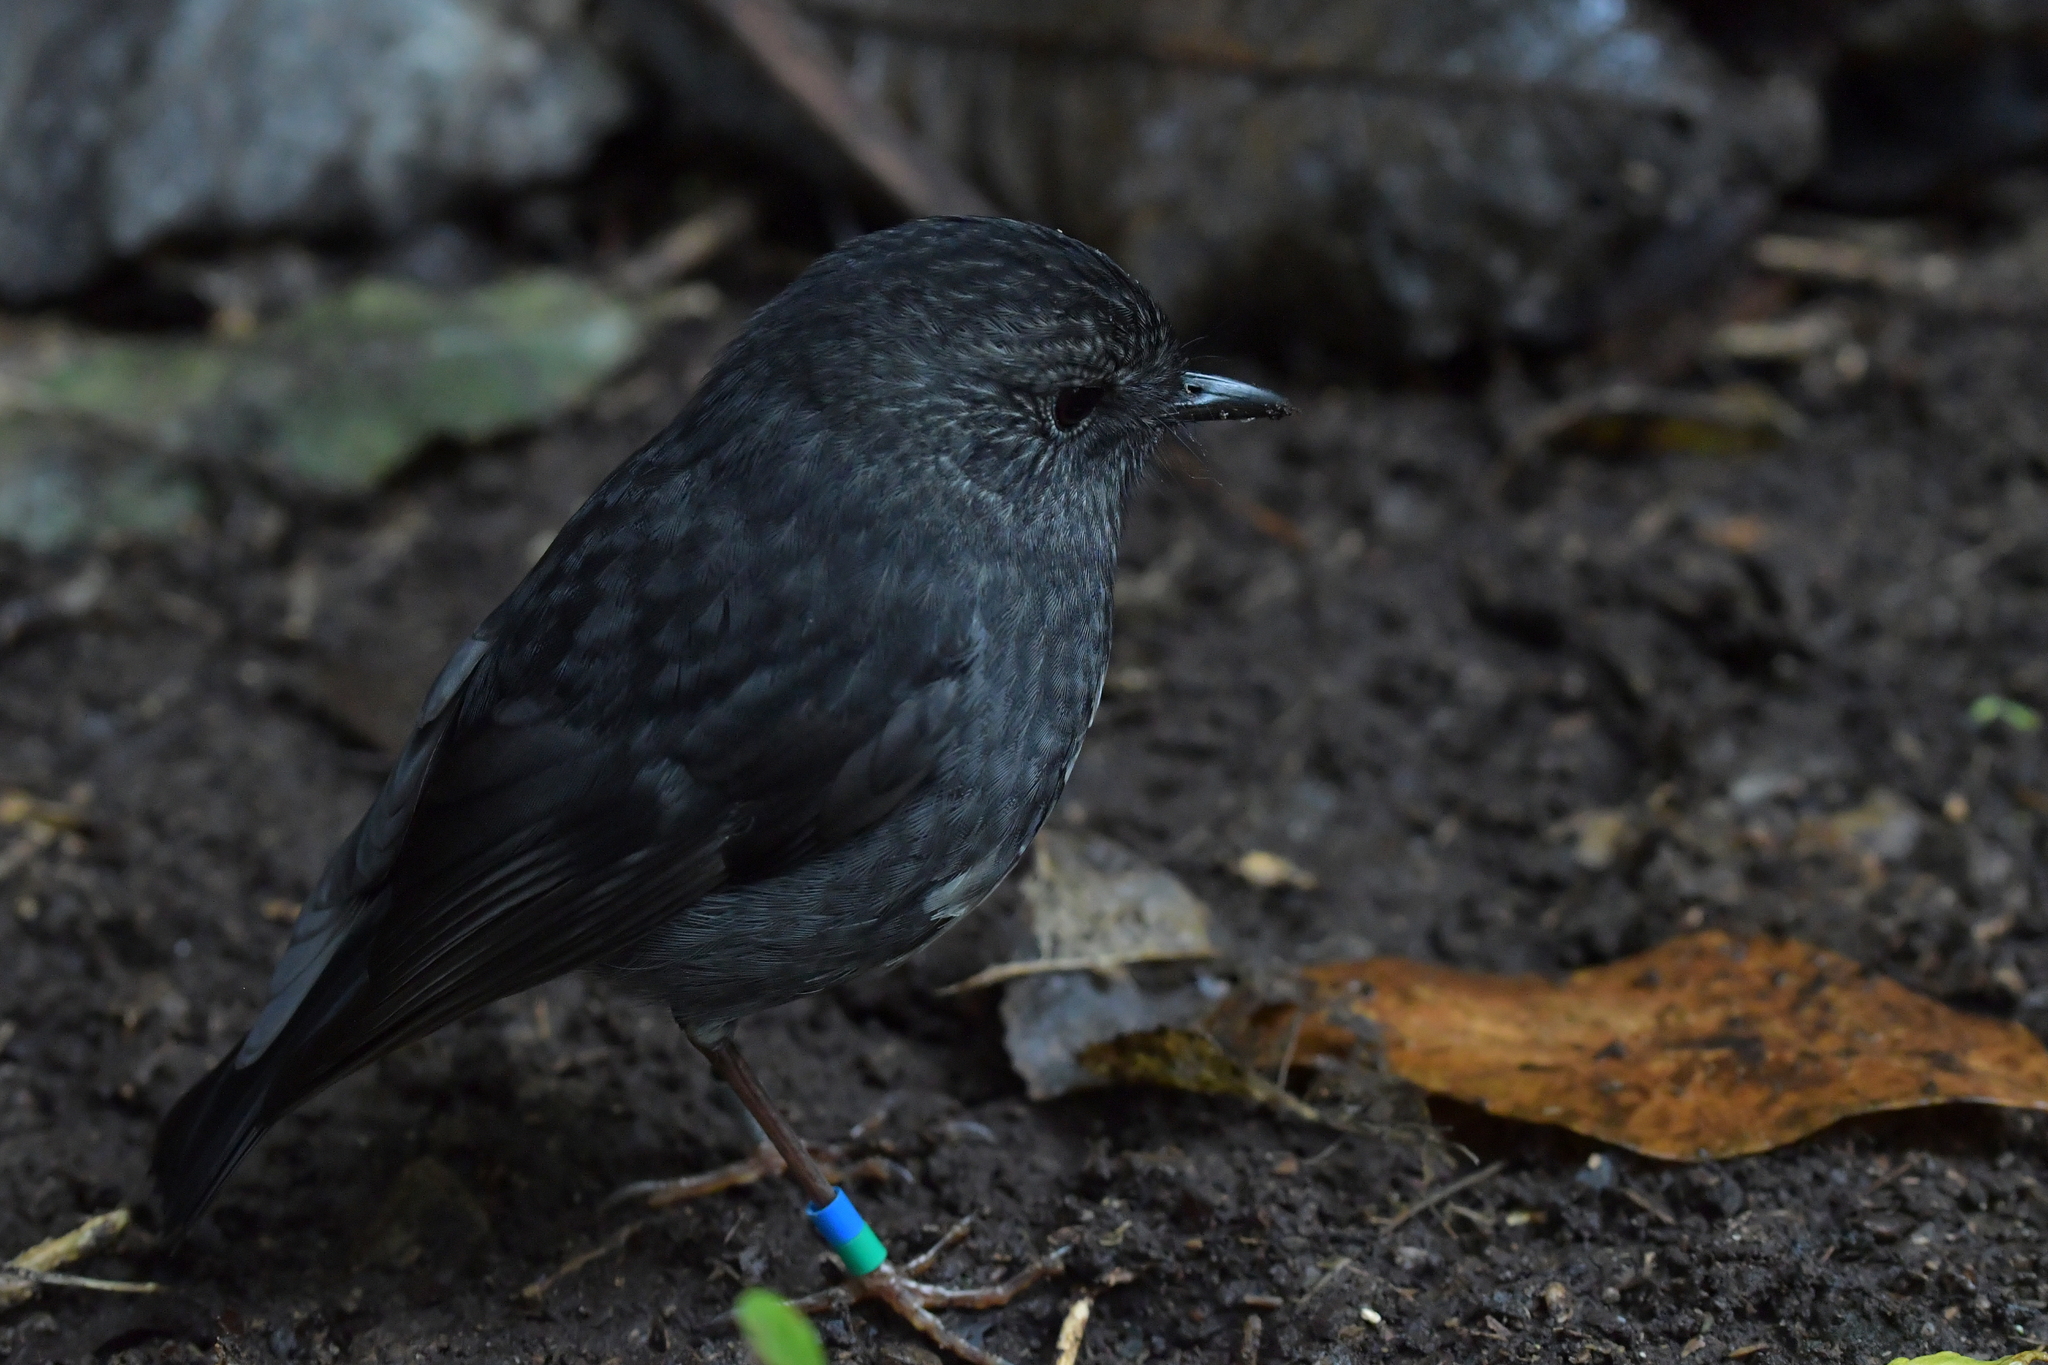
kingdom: Animalia
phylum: Chordata
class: Aves
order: Passeriformes
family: Petroicidae
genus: Petroica
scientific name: Petroica australis
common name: New zealand robin
